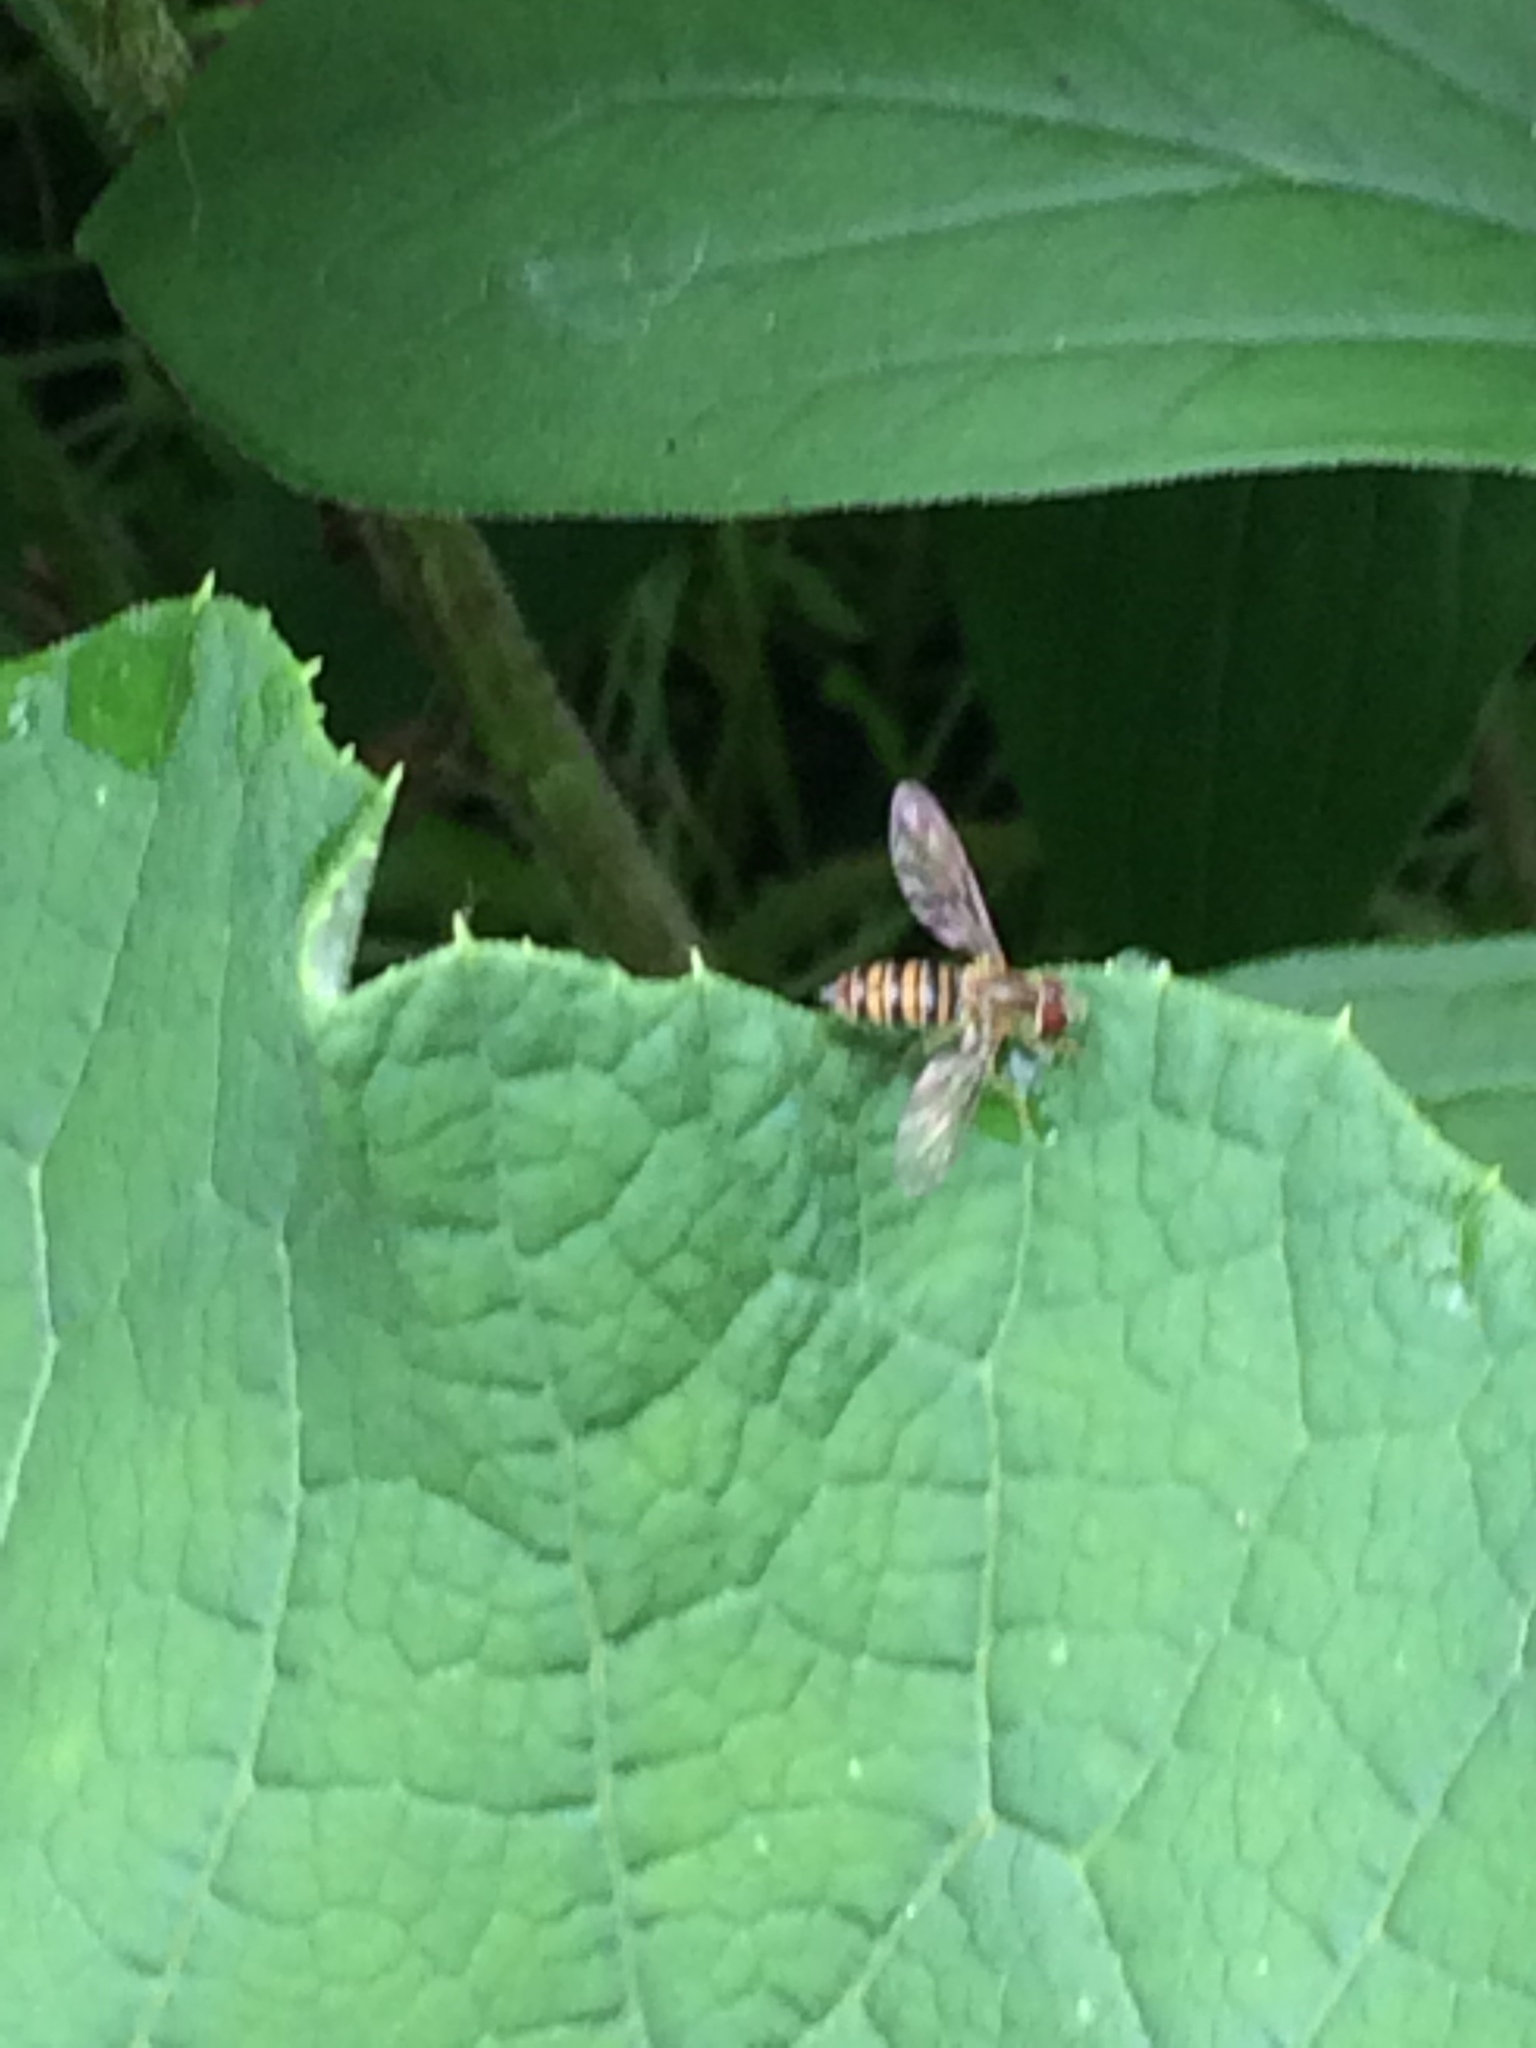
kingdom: Animalia
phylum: Arthropoda
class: Insecta
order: Diptera
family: Syrphidae
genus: Toxomerus
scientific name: Toxomerus politus
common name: Maize calligrapher
